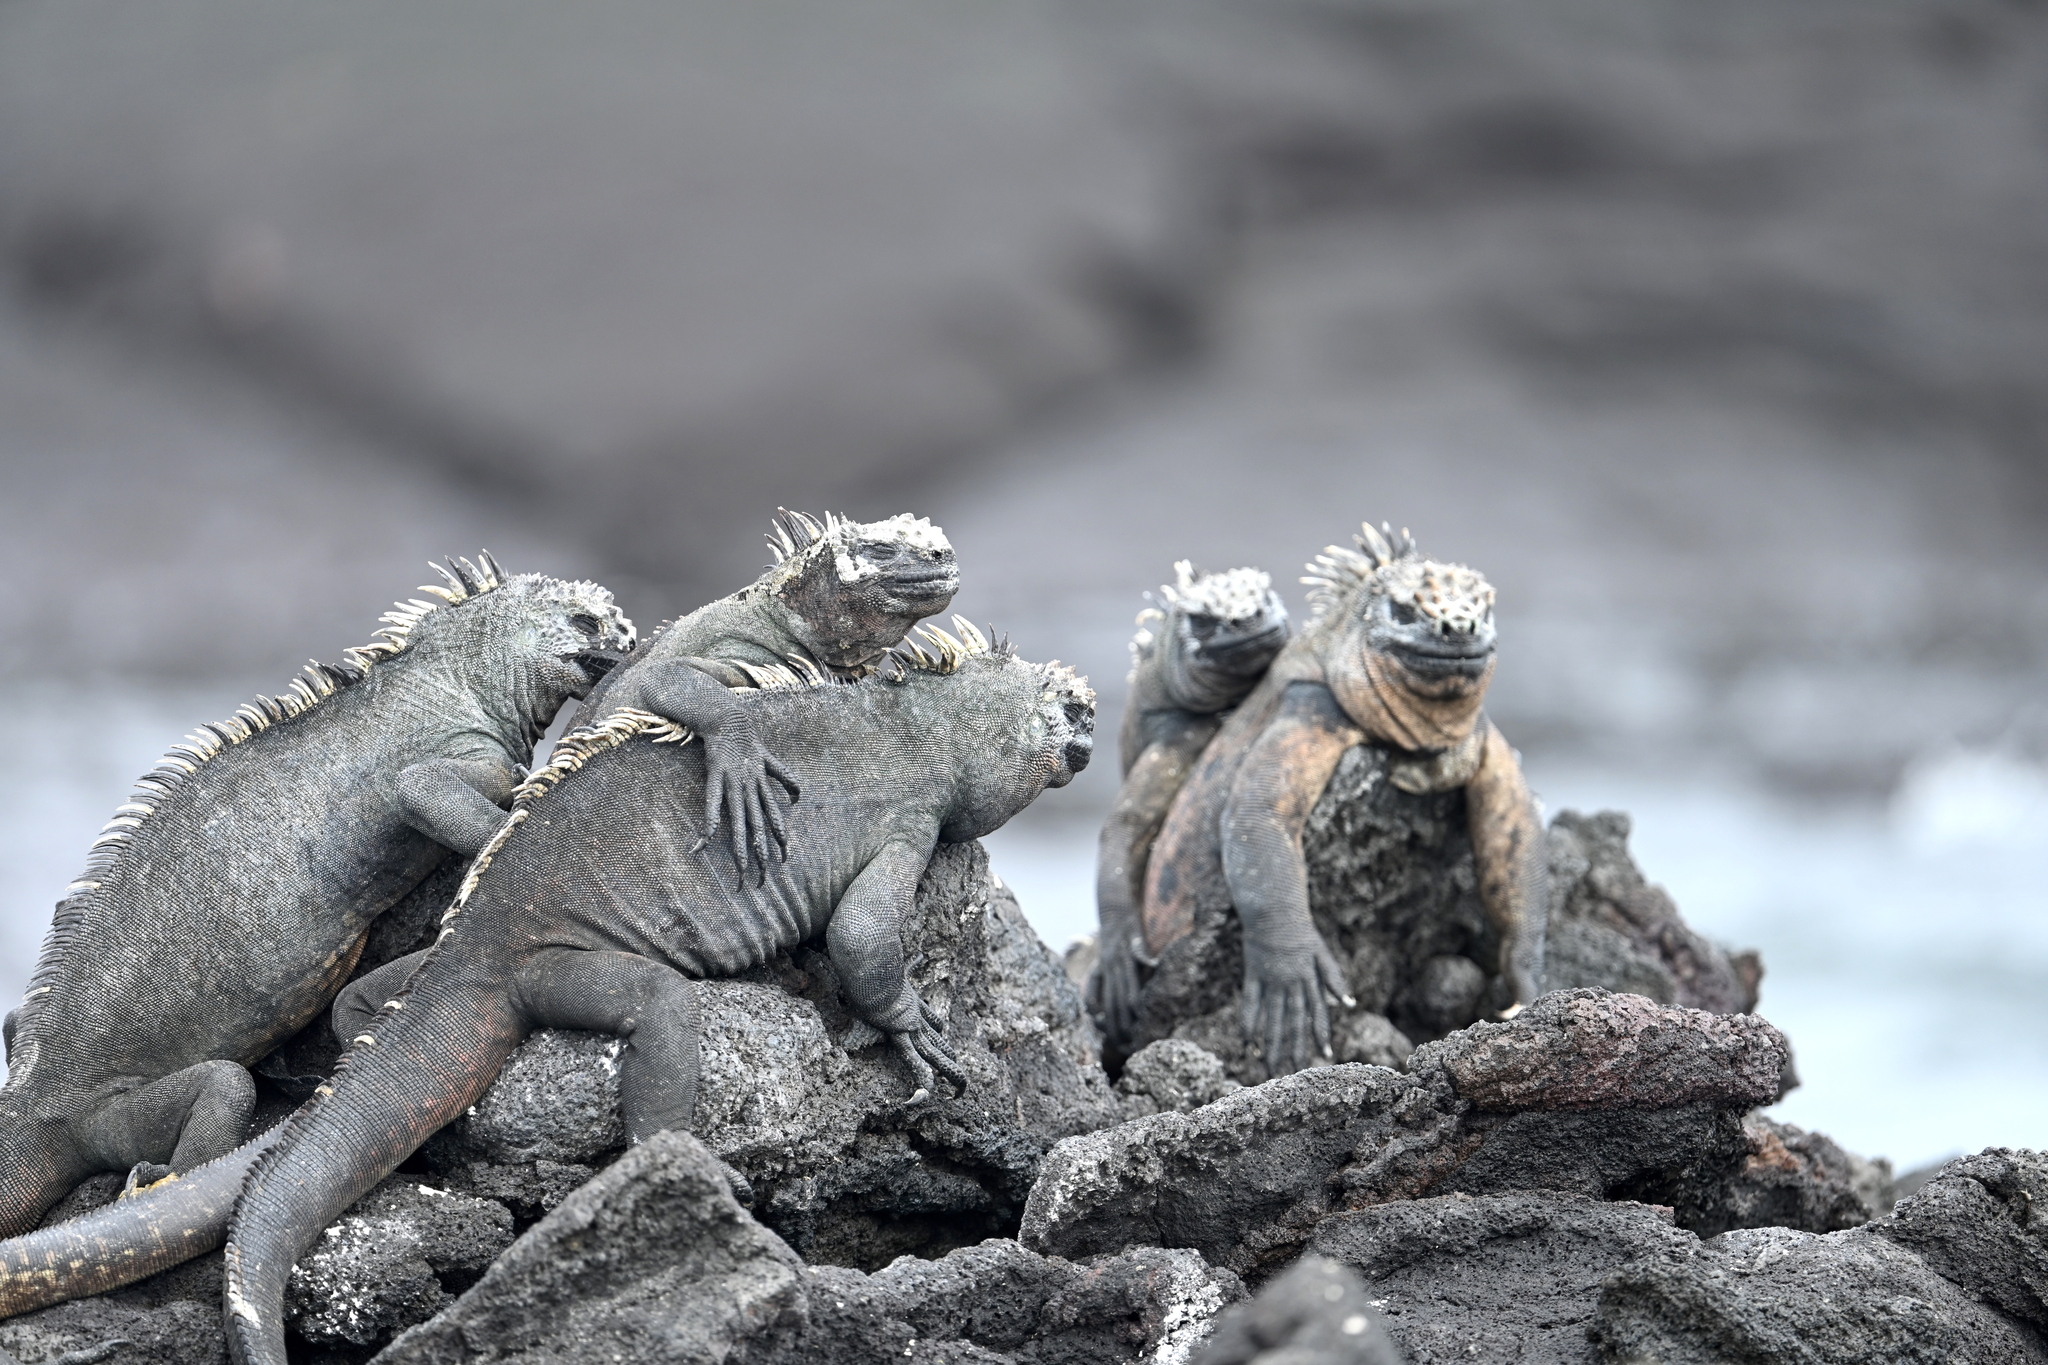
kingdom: Animalia
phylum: Chordata
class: Squamata
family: Iguanidae
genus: Amblyrhynchus
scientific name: Amblyrhynchus cristatus
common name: Marine iguana
